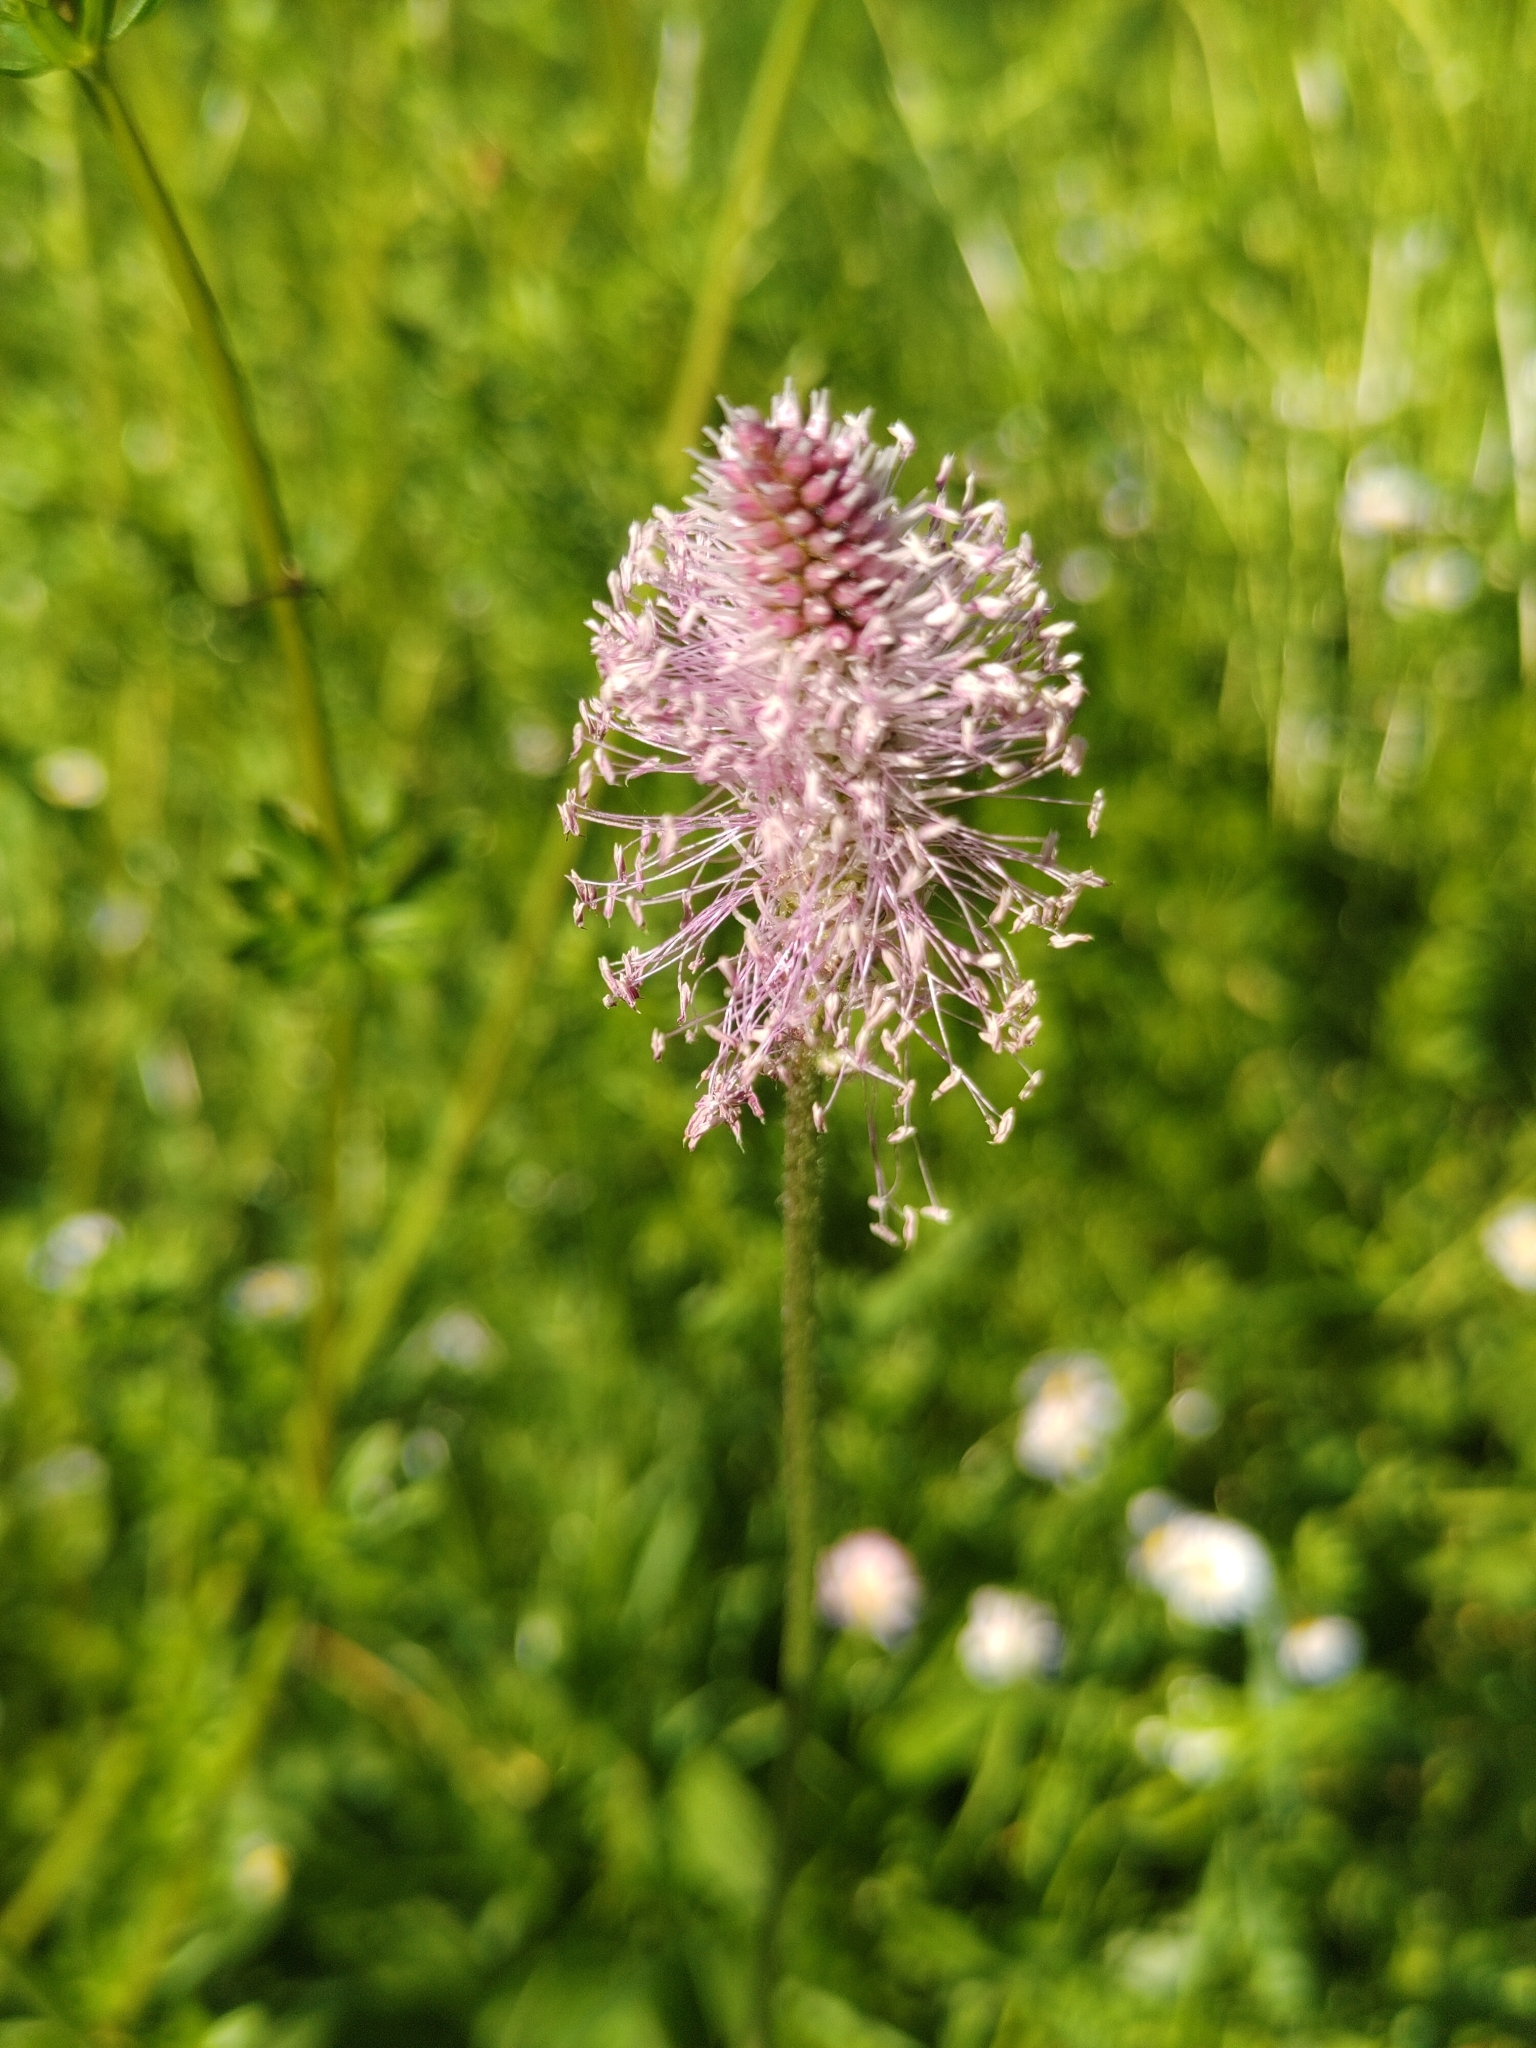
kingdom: Plantae
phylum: Tracheophyta
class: Magnoliopsida
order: Lamiales
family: Plantaginaceae
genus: Plantago
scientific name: Plantago media
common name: Hoary plantain
